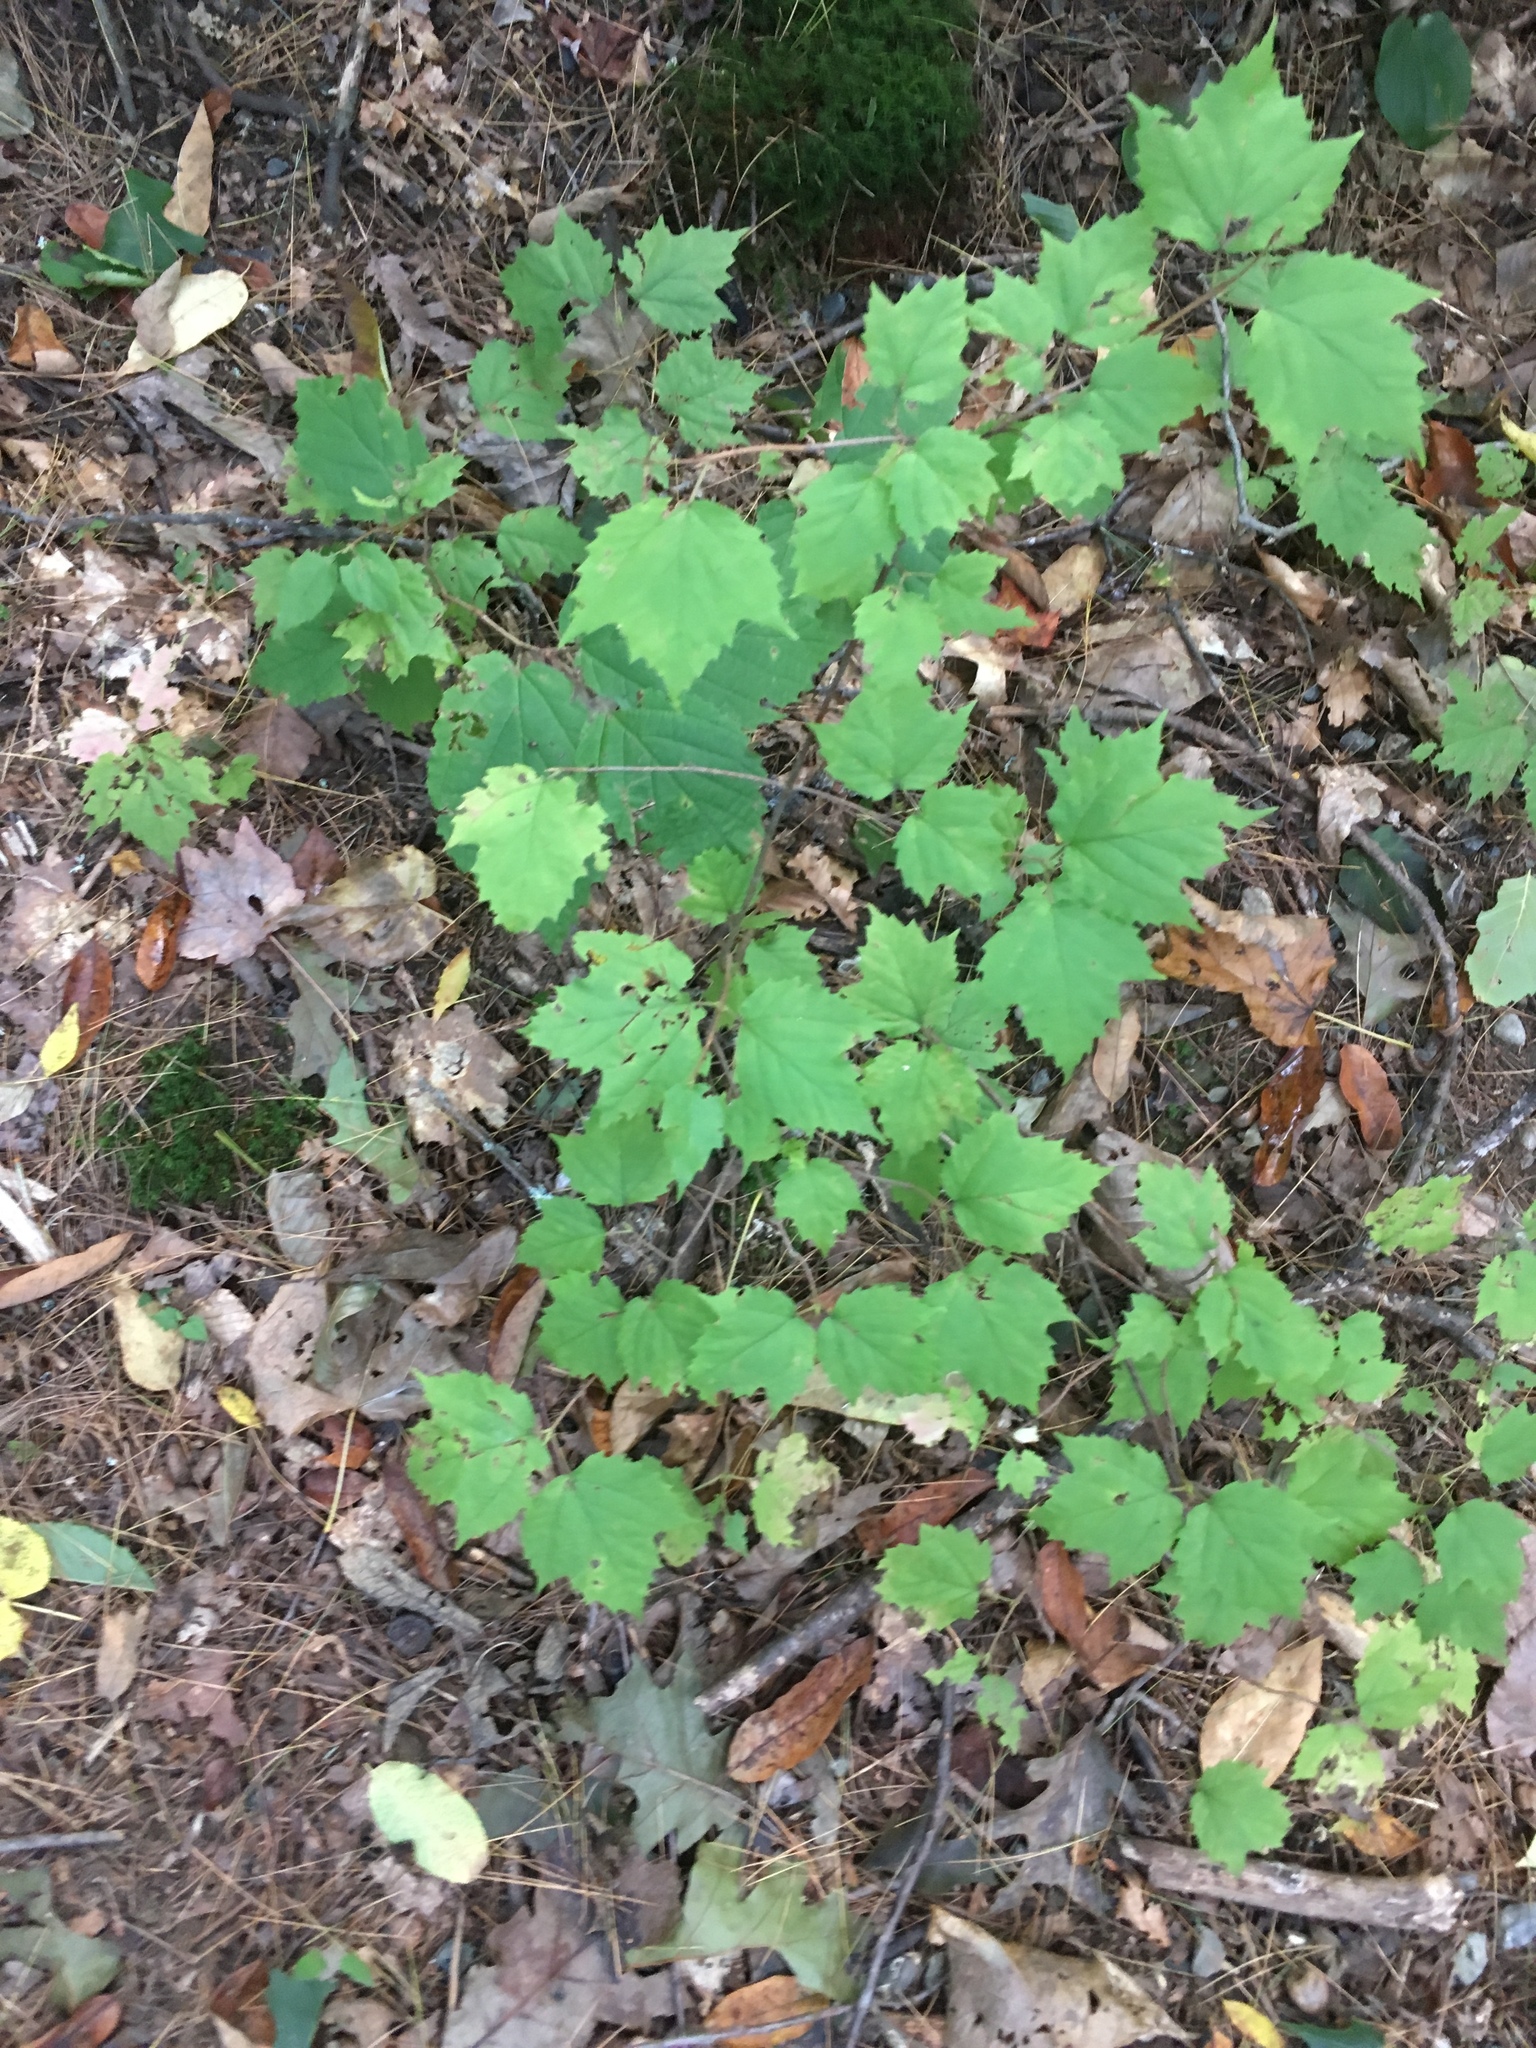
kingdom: Plantae
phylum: Tracheophyta
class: Magnoliopsida
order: Dipsacales
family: Viburnaceae
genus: Viburnum
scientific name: Viburnum acerifolium
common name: Dockmackie
